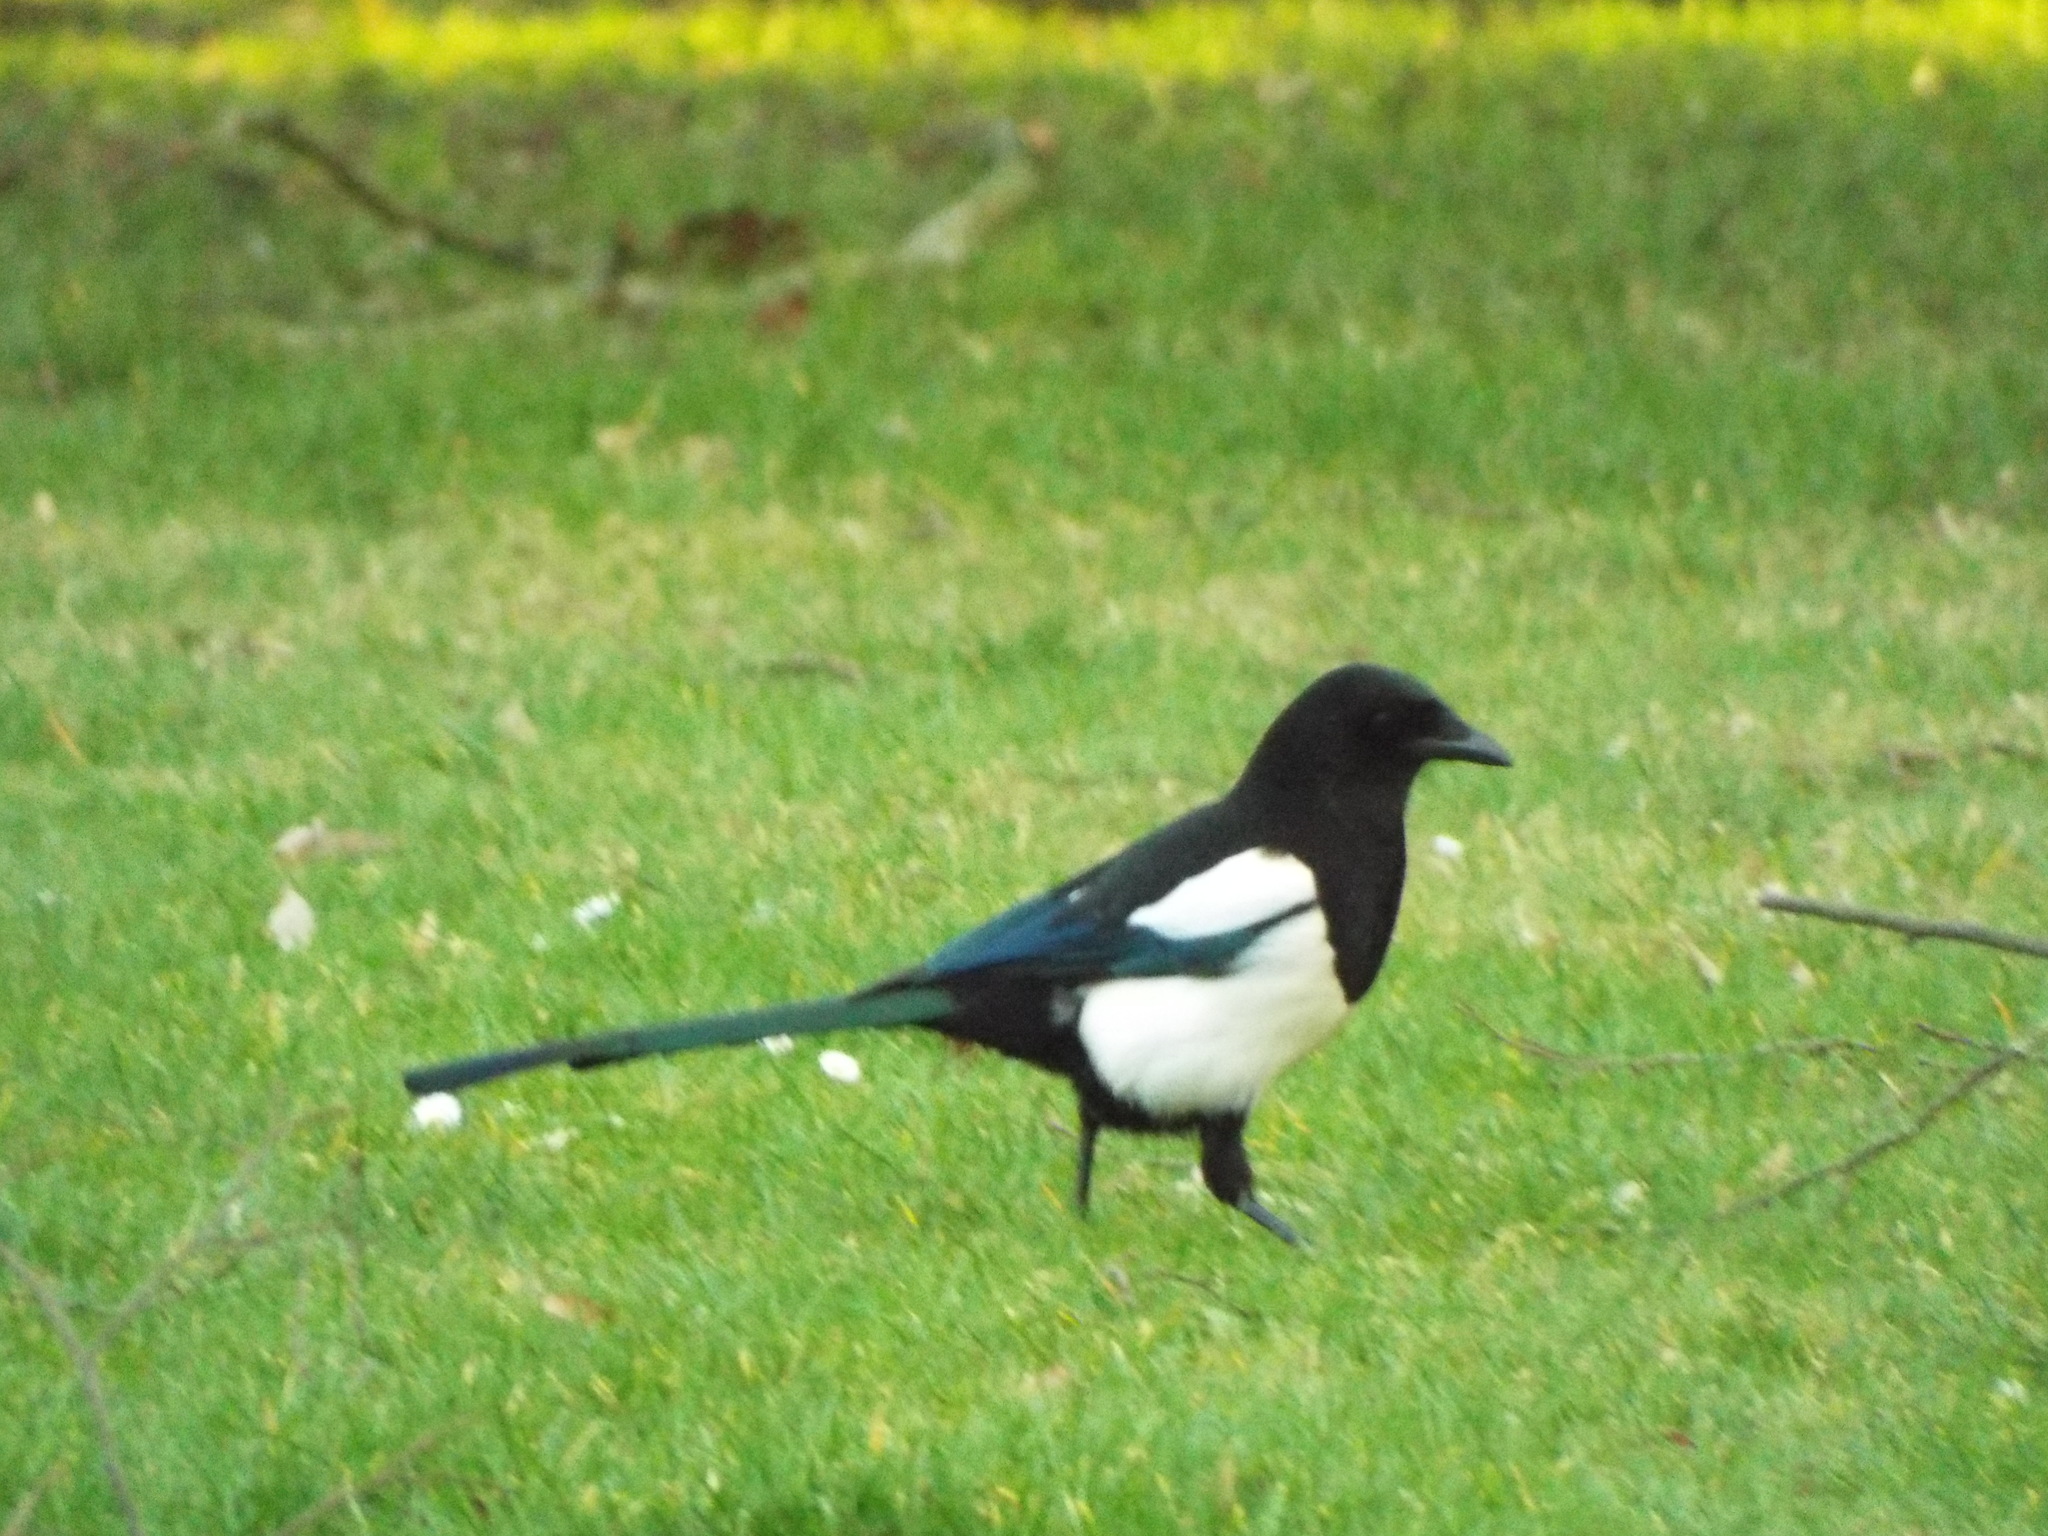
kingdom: Animalia
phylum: Chordata
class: Aves
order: Passeriformes
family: Corvidae
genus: Pica
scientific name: Pica pica
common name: Eurasian magpie
